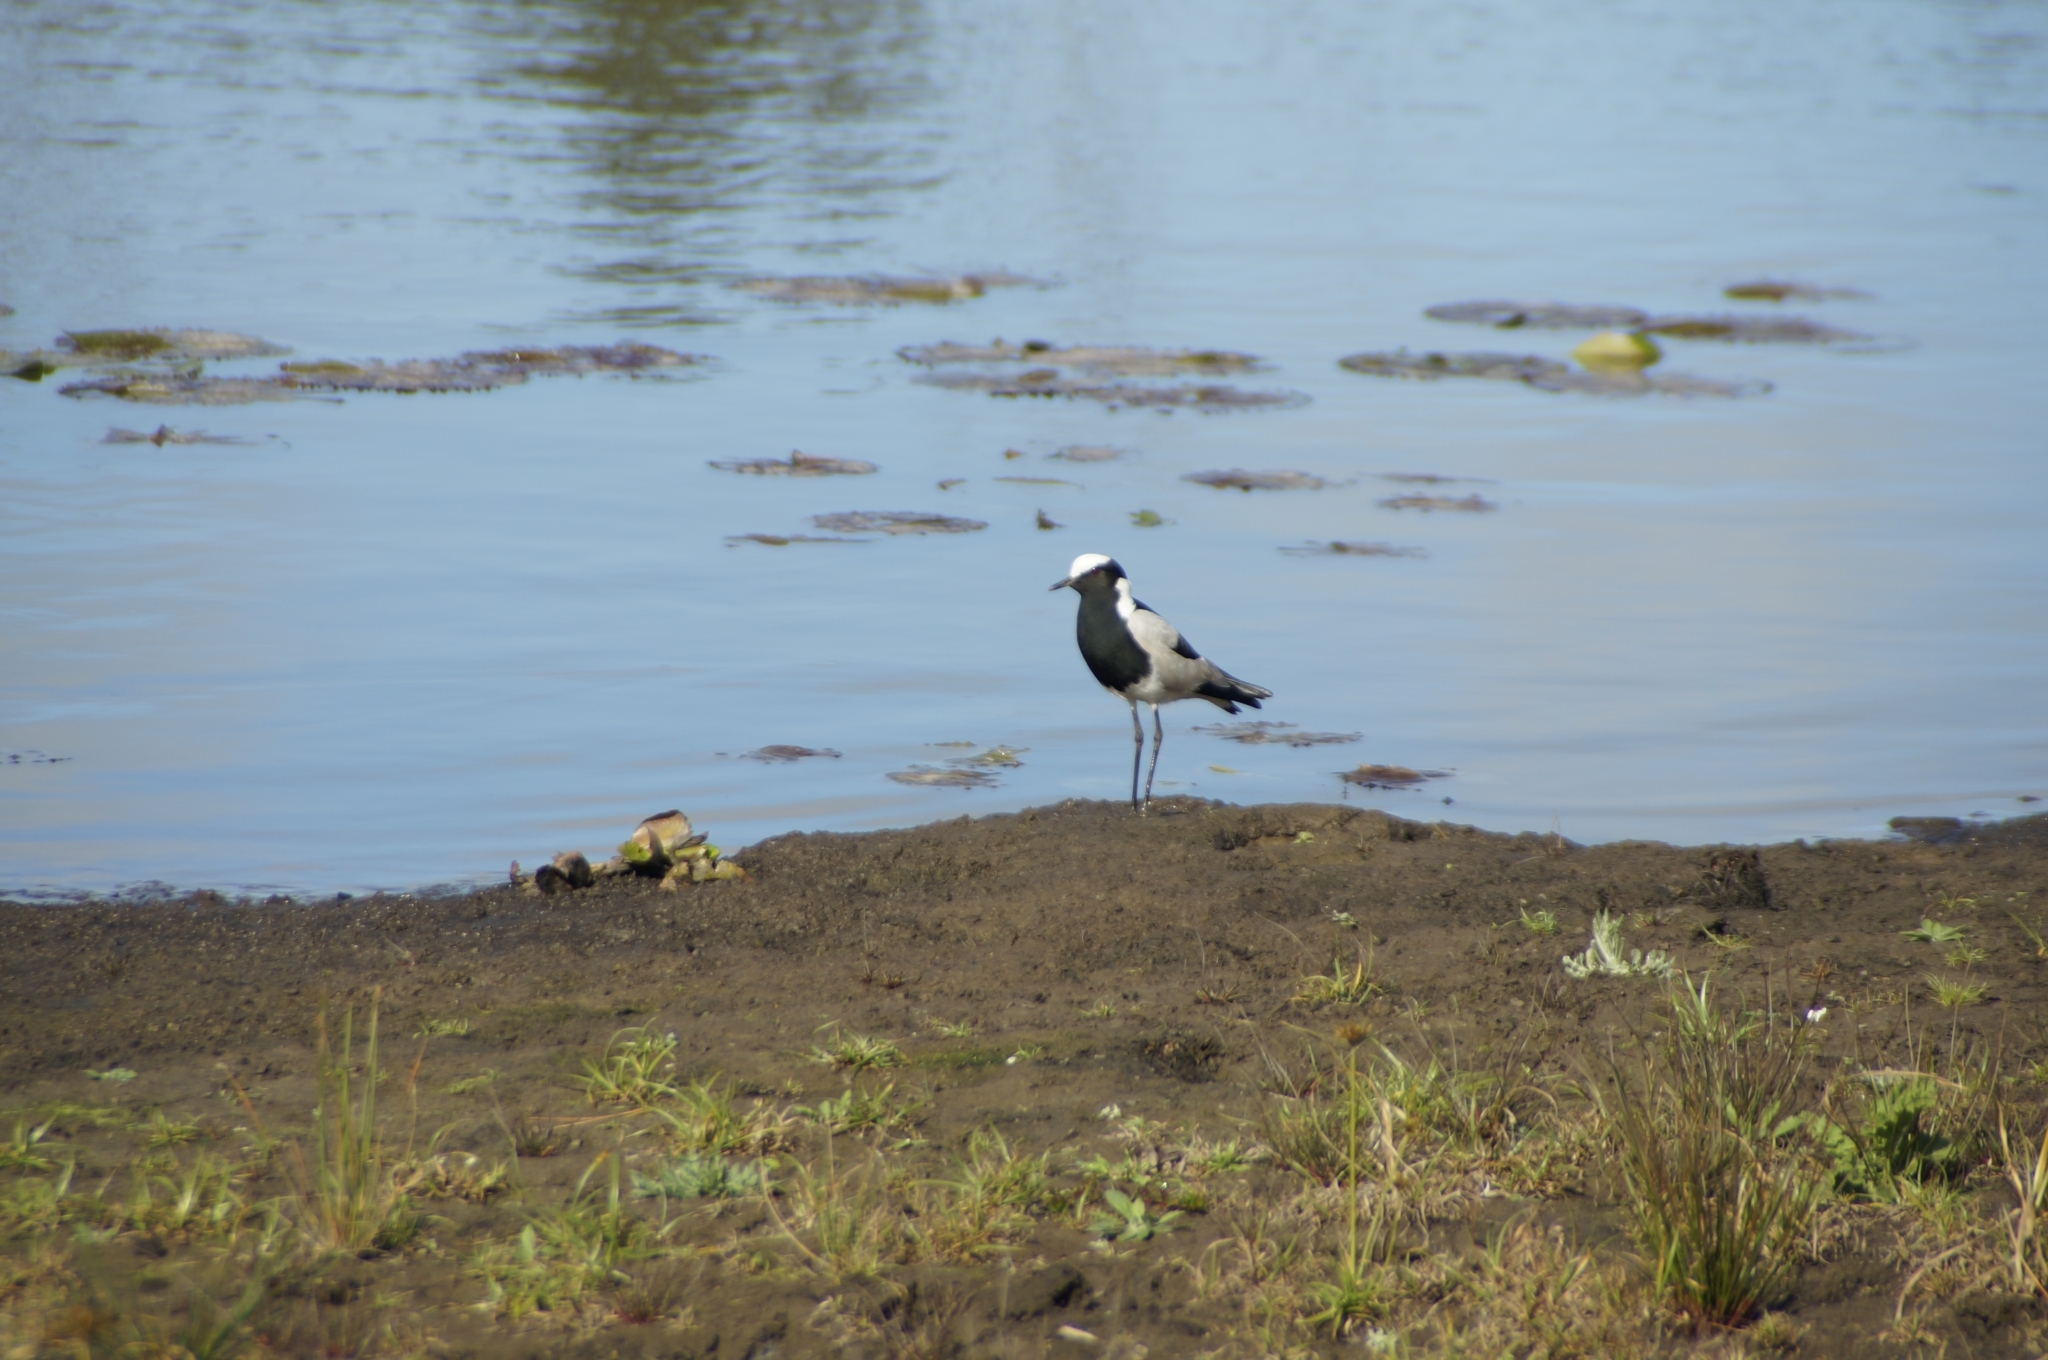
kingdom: Animalia
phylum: Chordata
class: Aves
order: Charadriiformes
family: Charadriidae
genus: Vanellus
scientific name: Vanellus armatus
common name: Blacksmith lapwing
